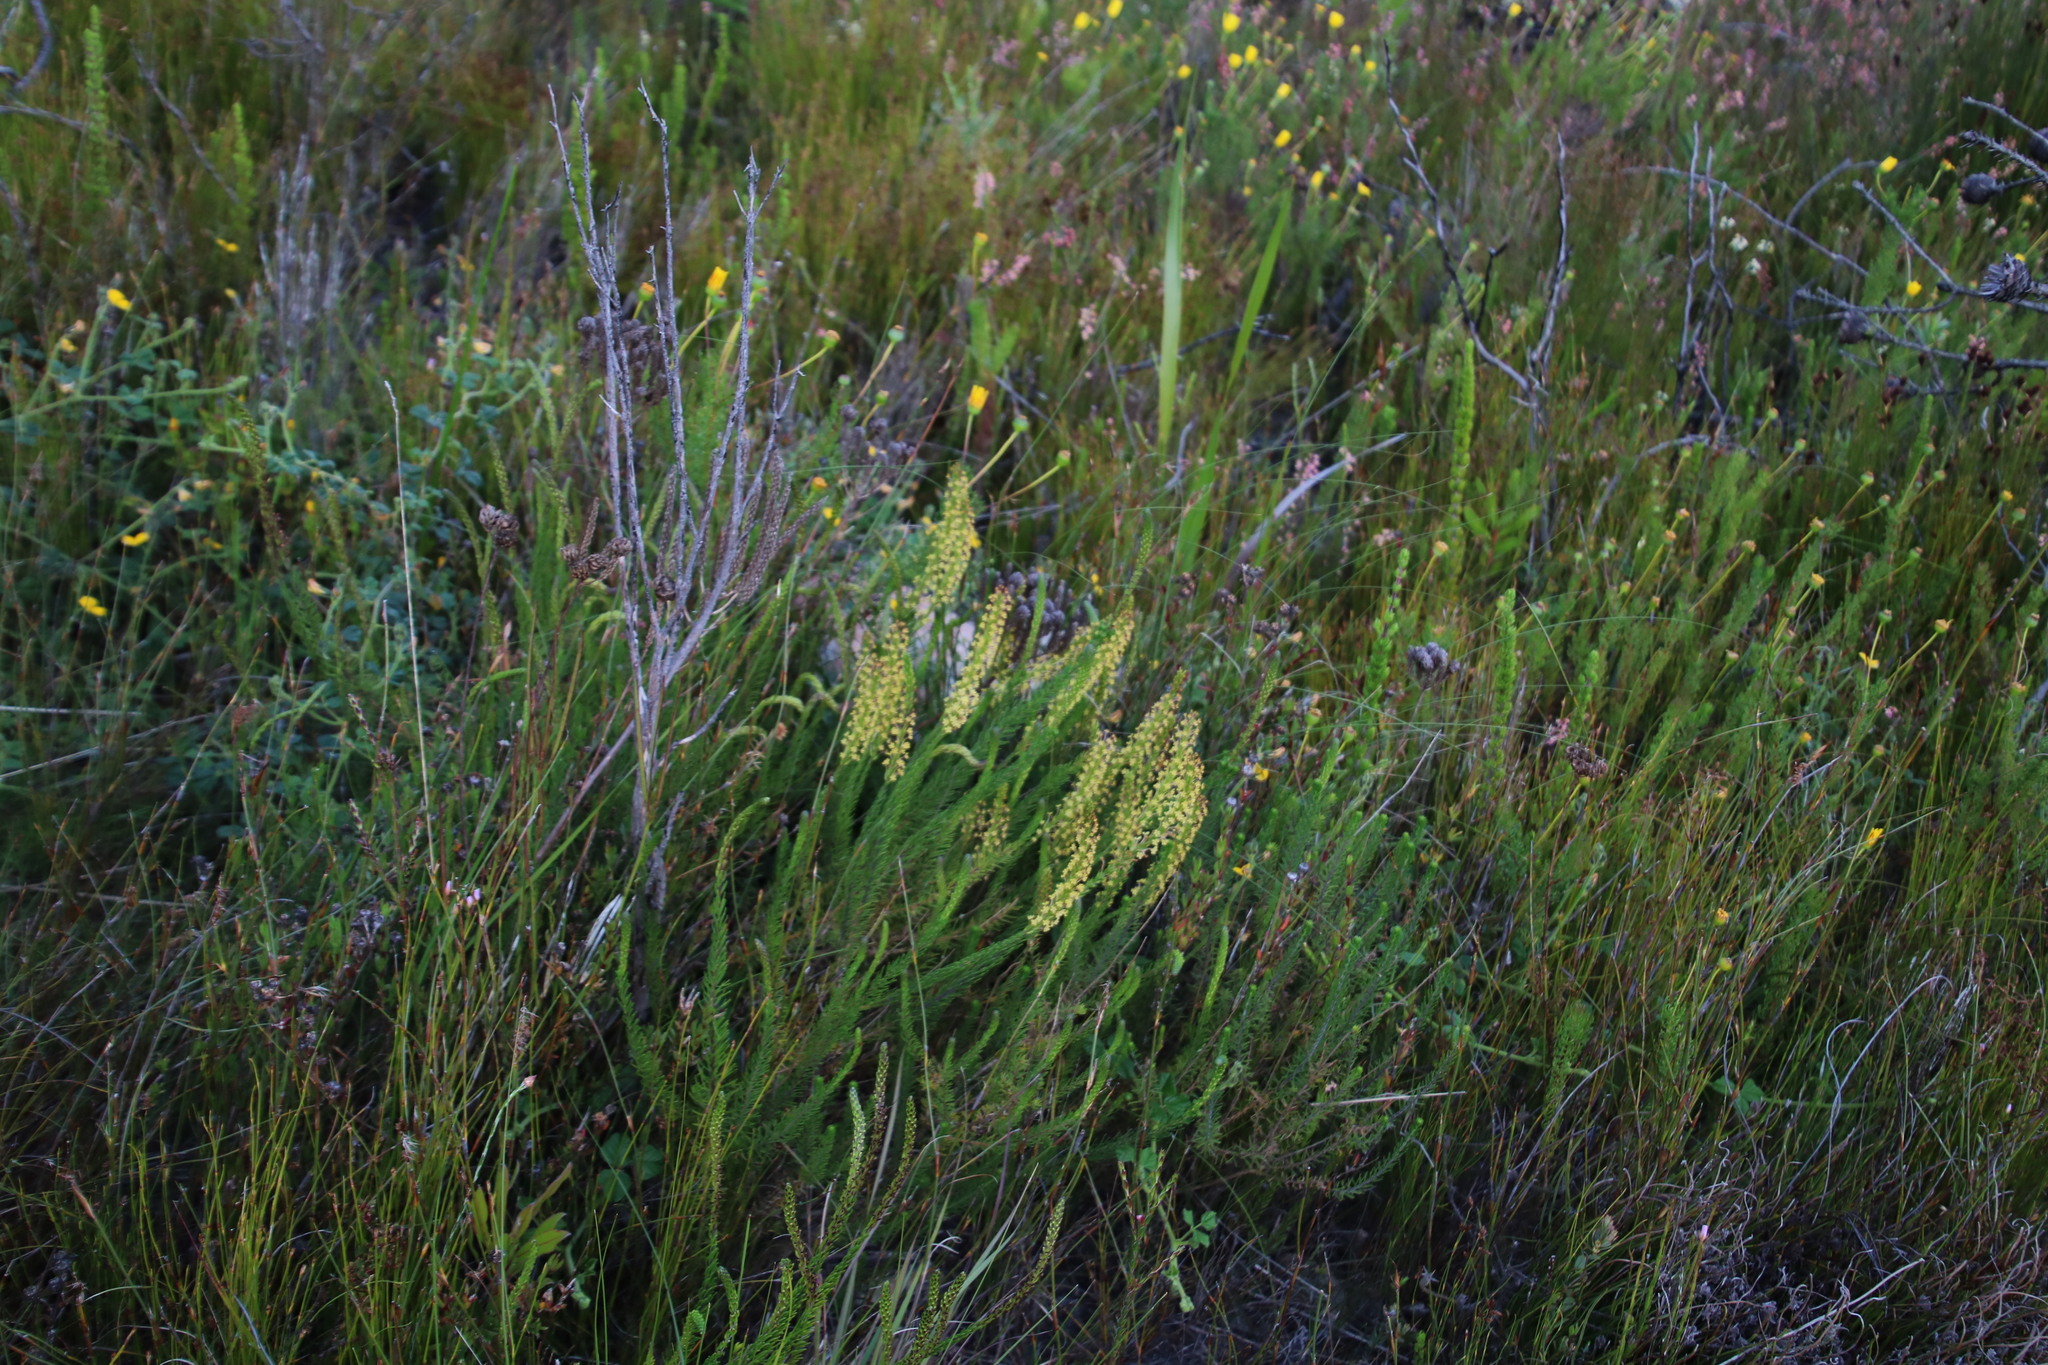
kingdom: Plantae
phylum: Tracheophyta
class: Magnoliopsida
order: Lamiales
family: Scrophulariaceae
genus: Microdon
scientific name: Microdon dubius
